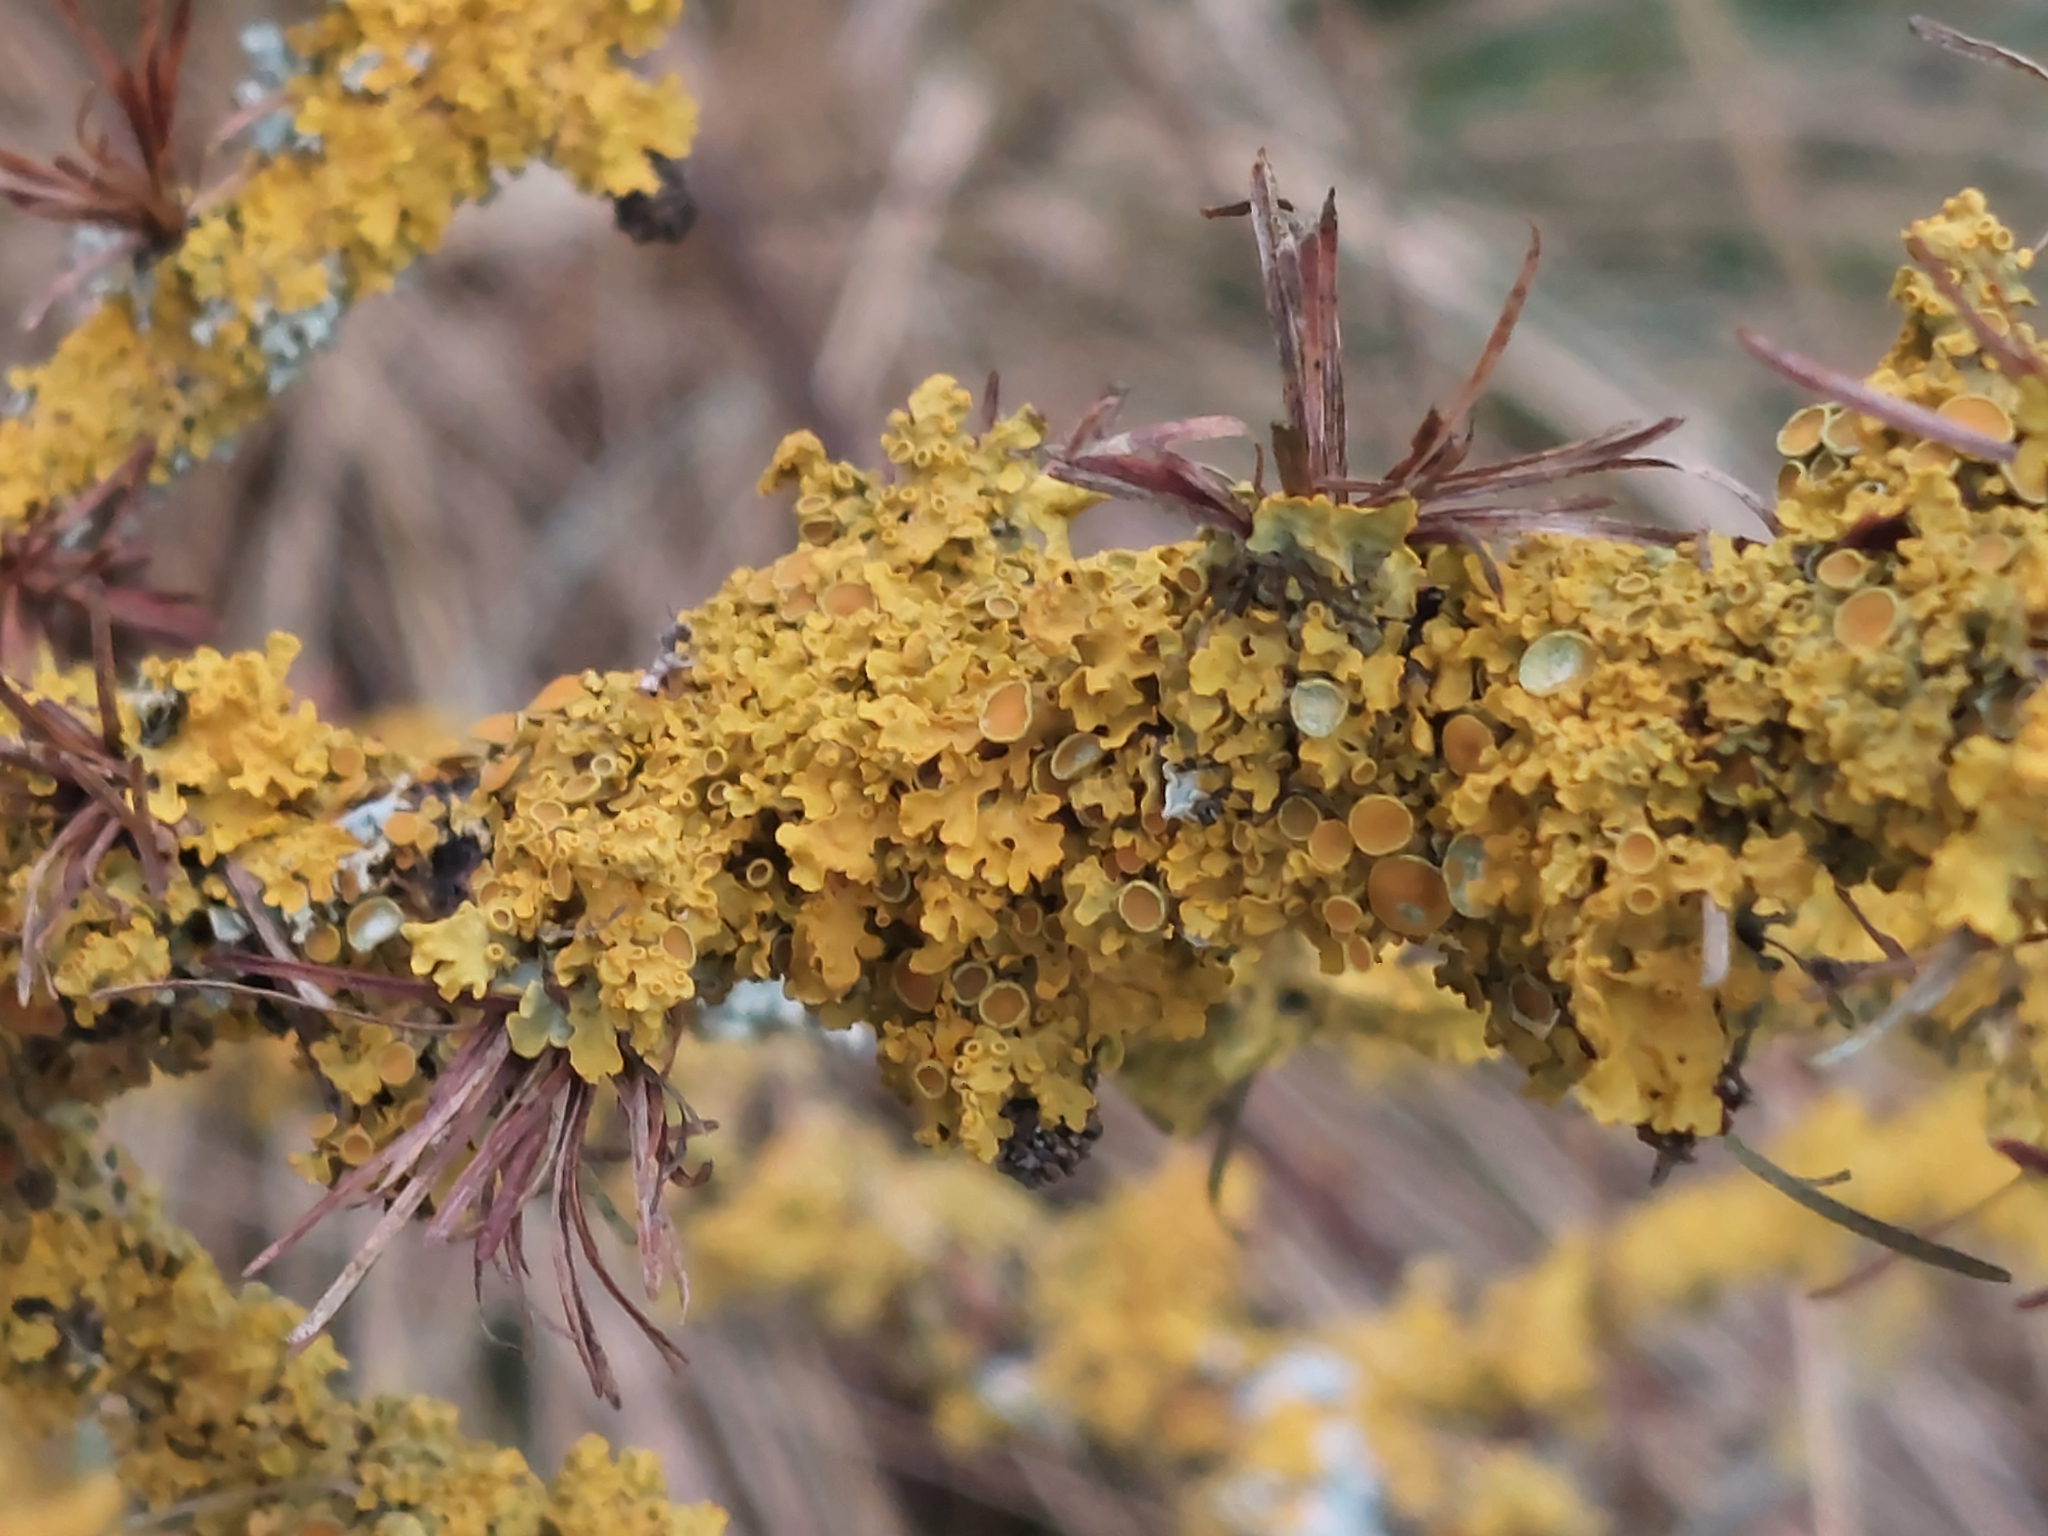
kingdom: Fungi
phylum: Ascomycota
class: Lecanoromycetes
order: Teloschistales
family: Teloschistaceae
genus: Xanthoria
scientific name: Xanthoria parietina
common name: Common orange lichen
